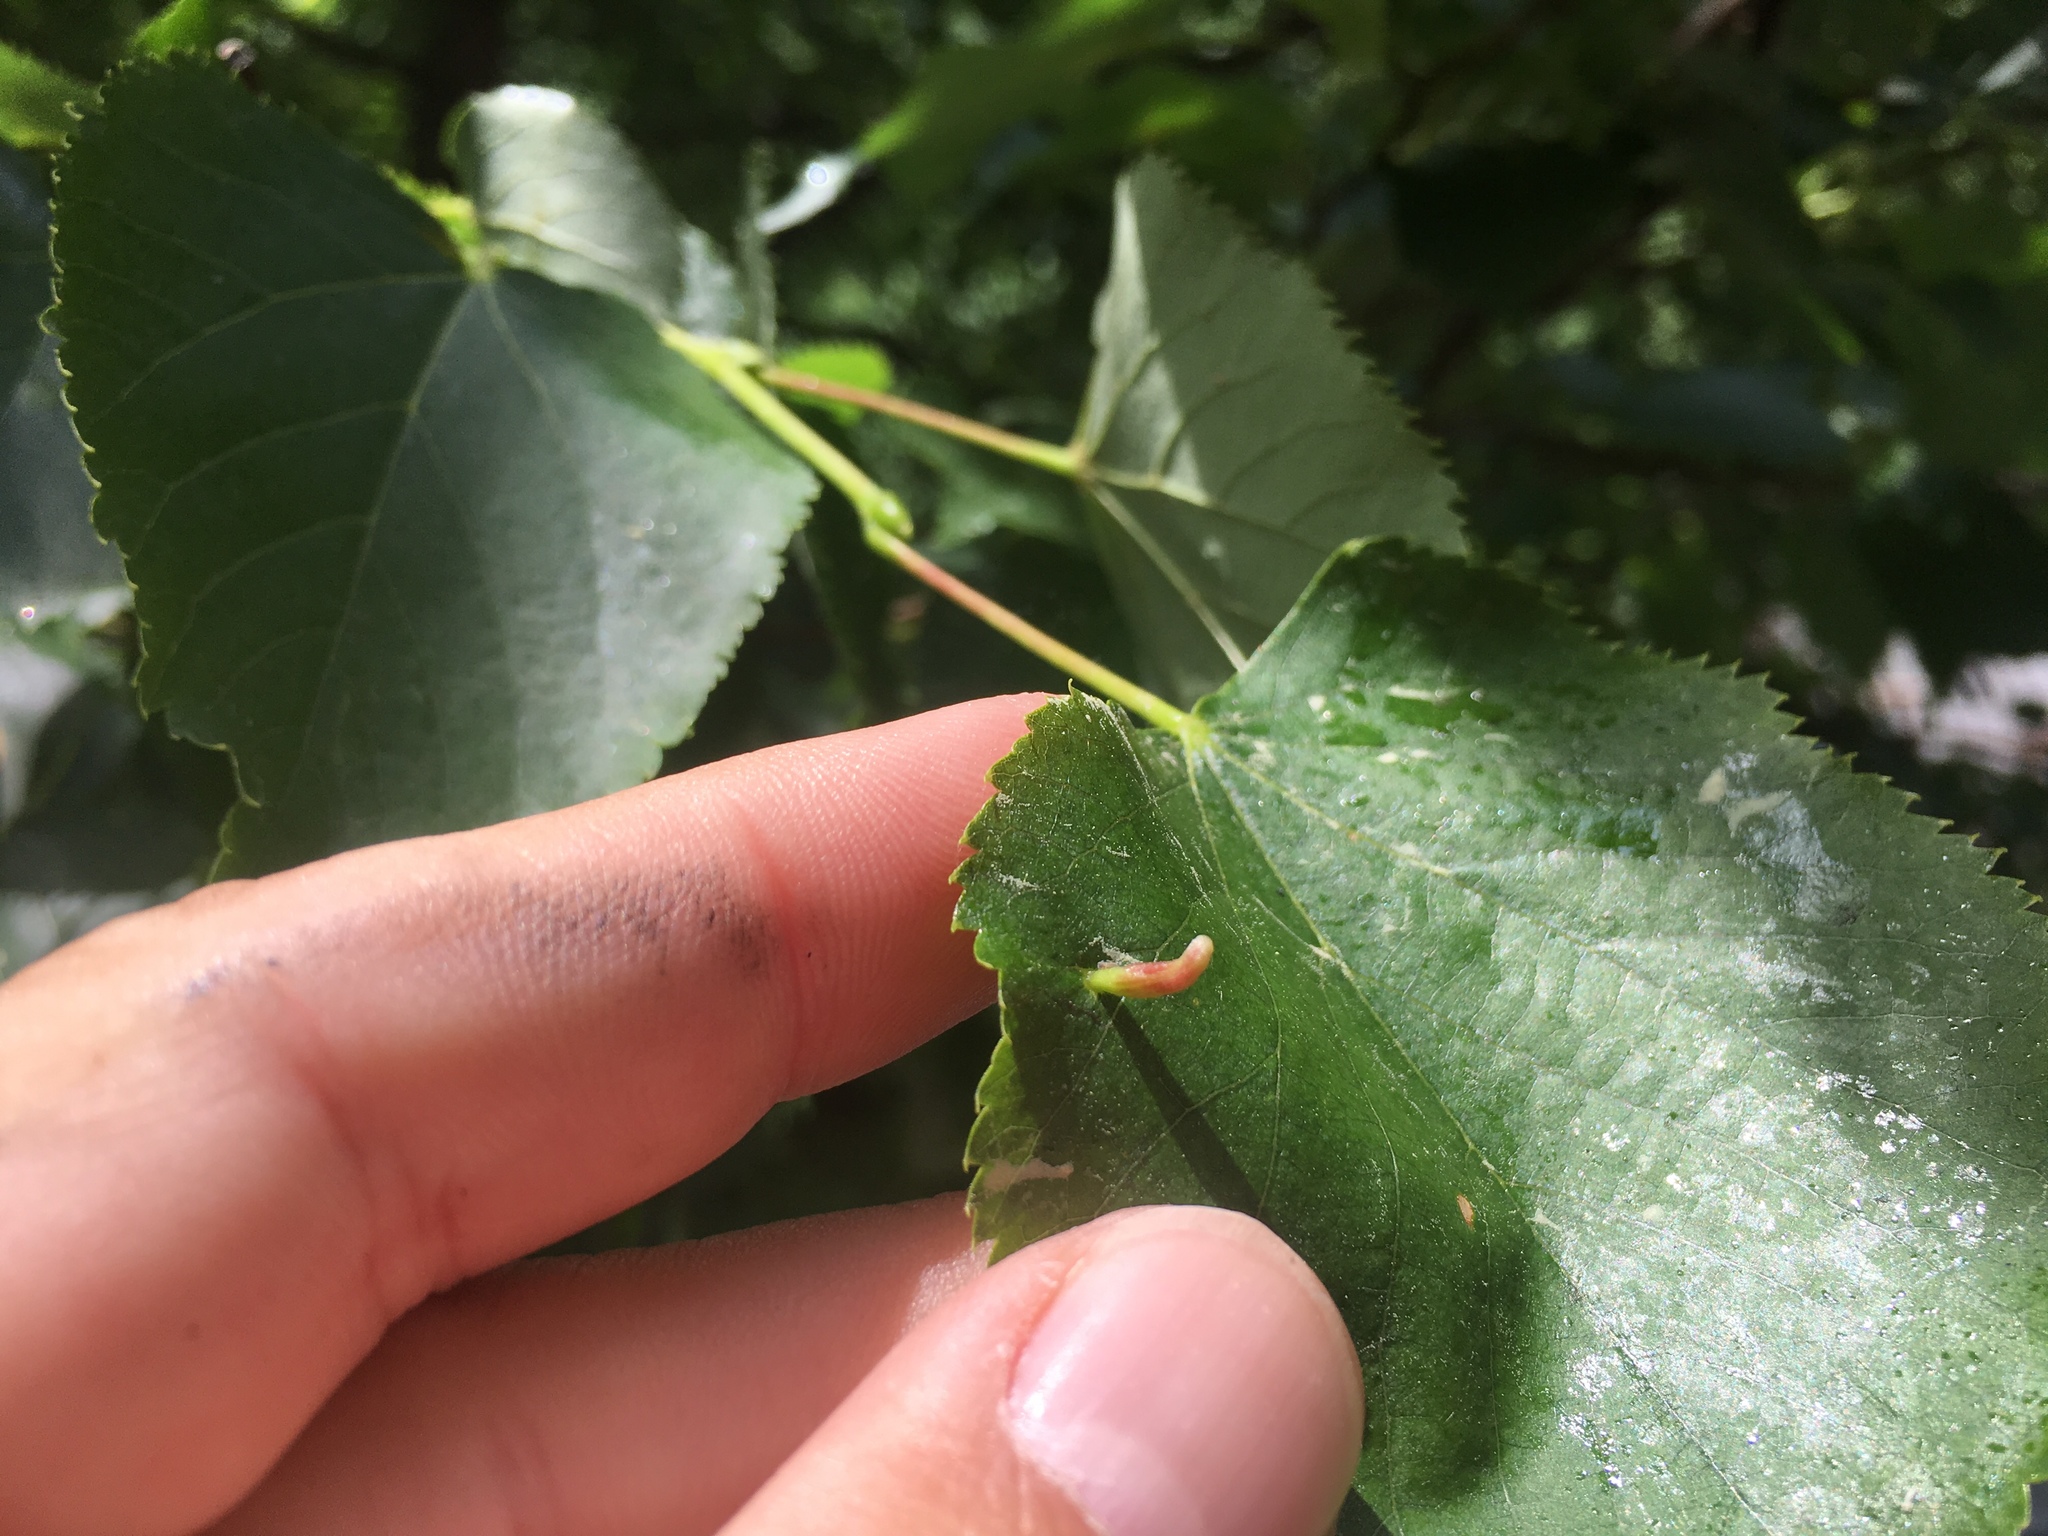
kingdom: Animalia
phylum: Arthropoda
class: Arachnida
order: Trombidiformes
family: Eriophyidae
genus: Eriophyes
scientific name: Eriophyes tiliae
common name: Red nail gall mite
